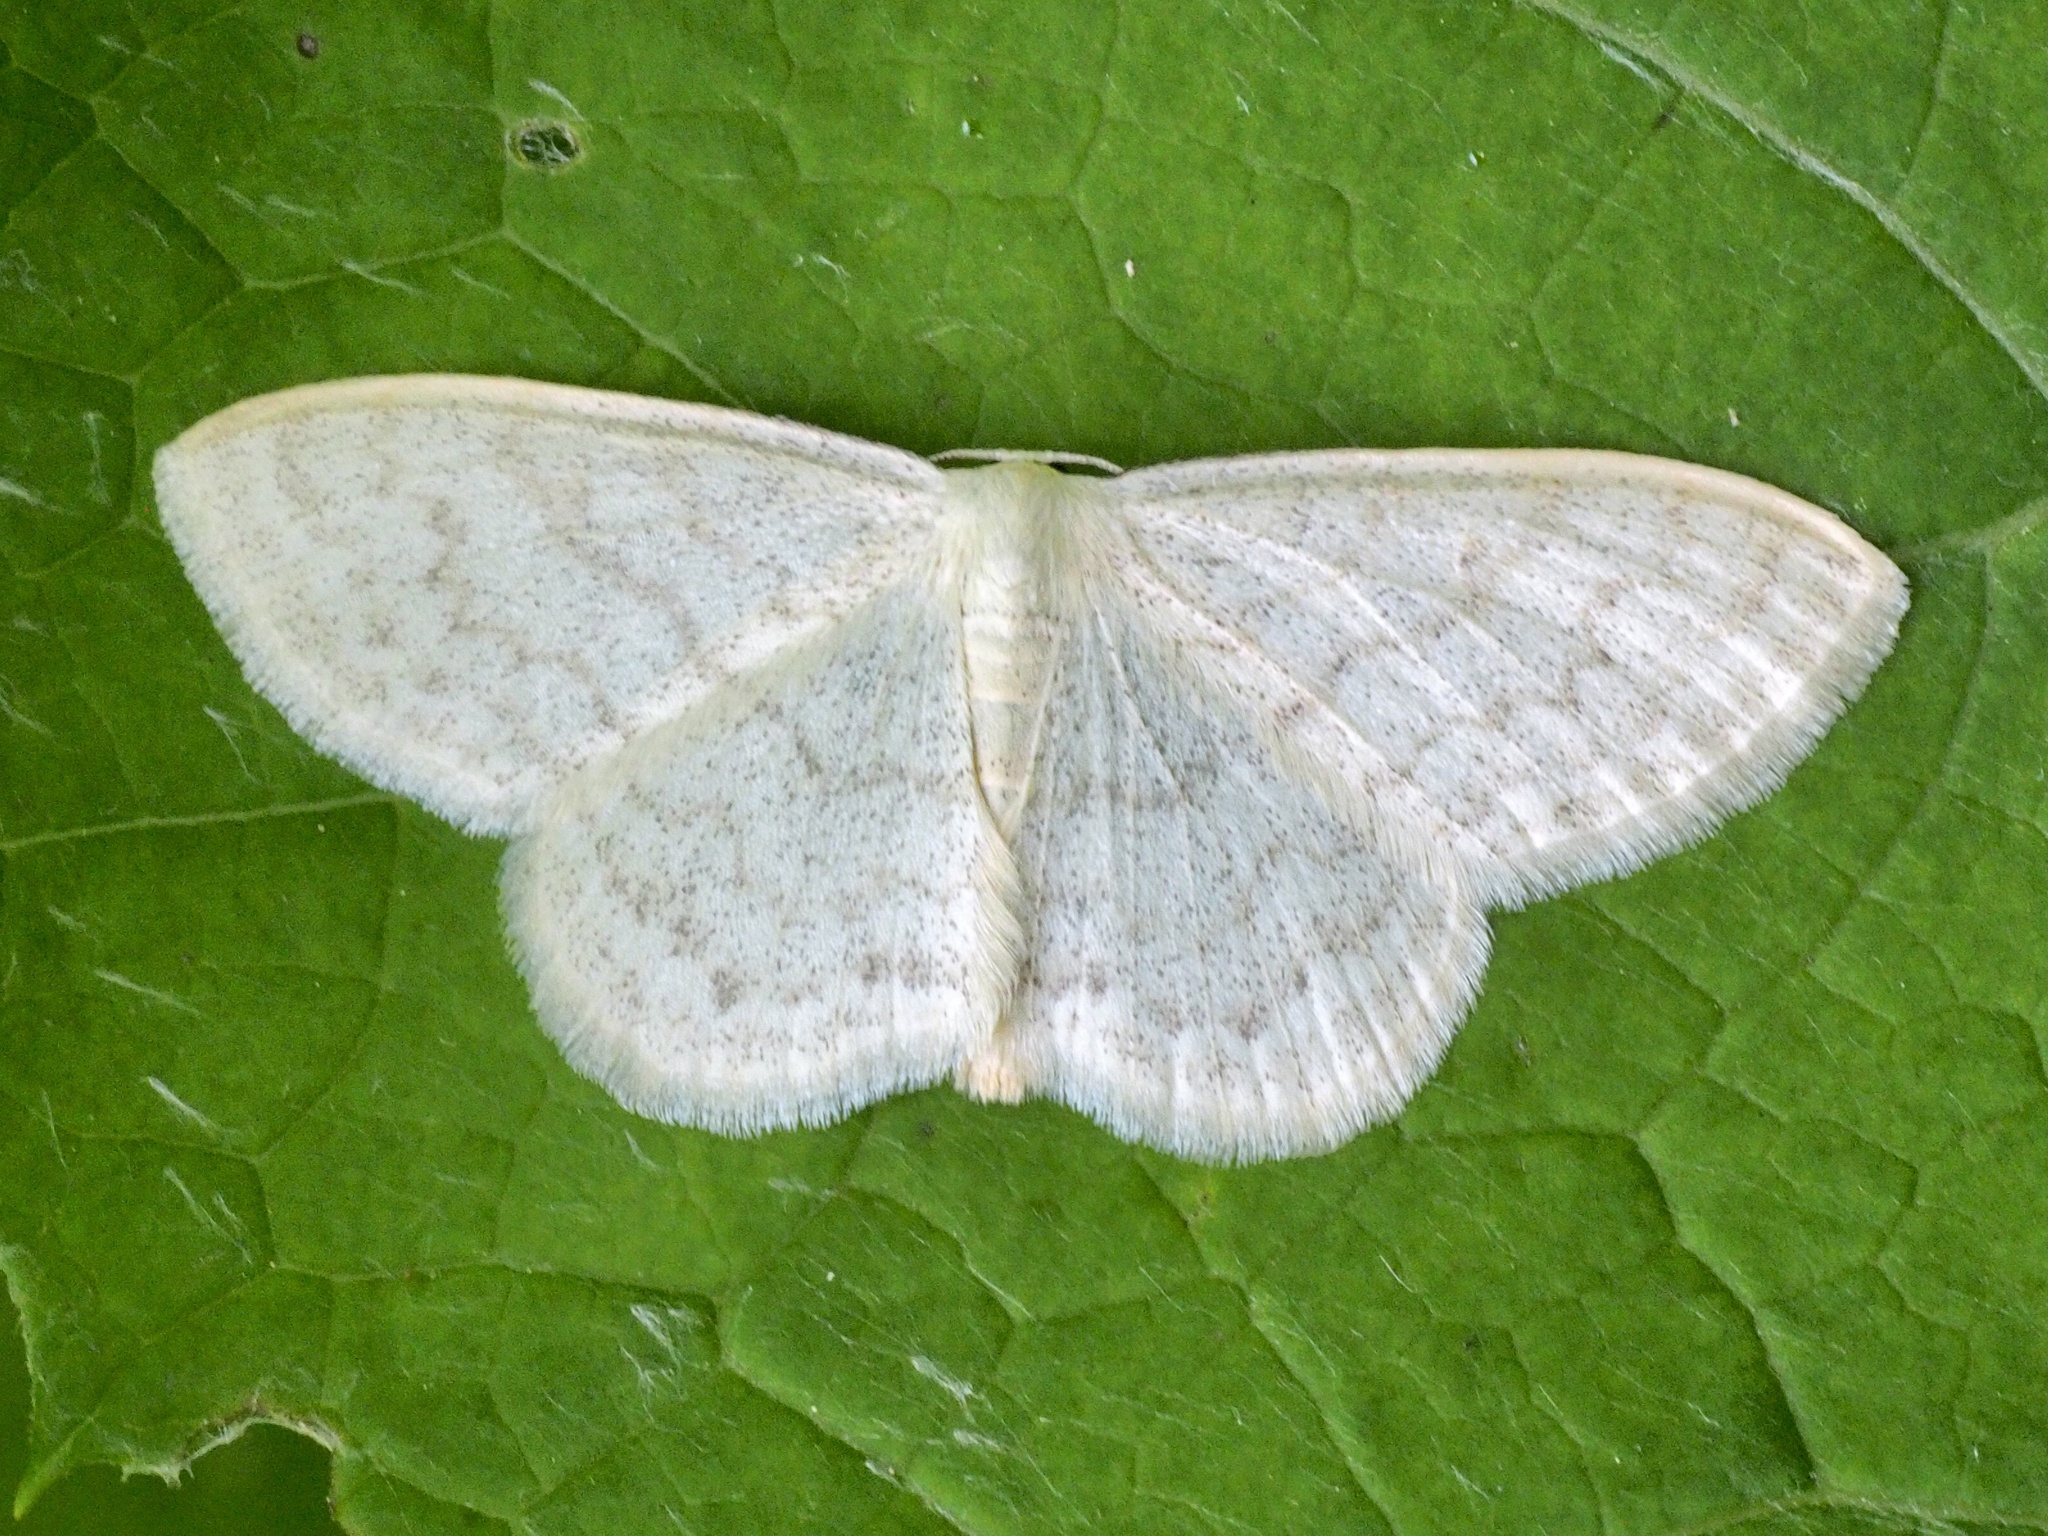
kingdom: Animalia
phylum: Arthropoda
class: Insecta
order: Lepidoptera
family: Geometridae
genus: Scopula
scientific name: Scopula floslactata
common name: Cream wave
